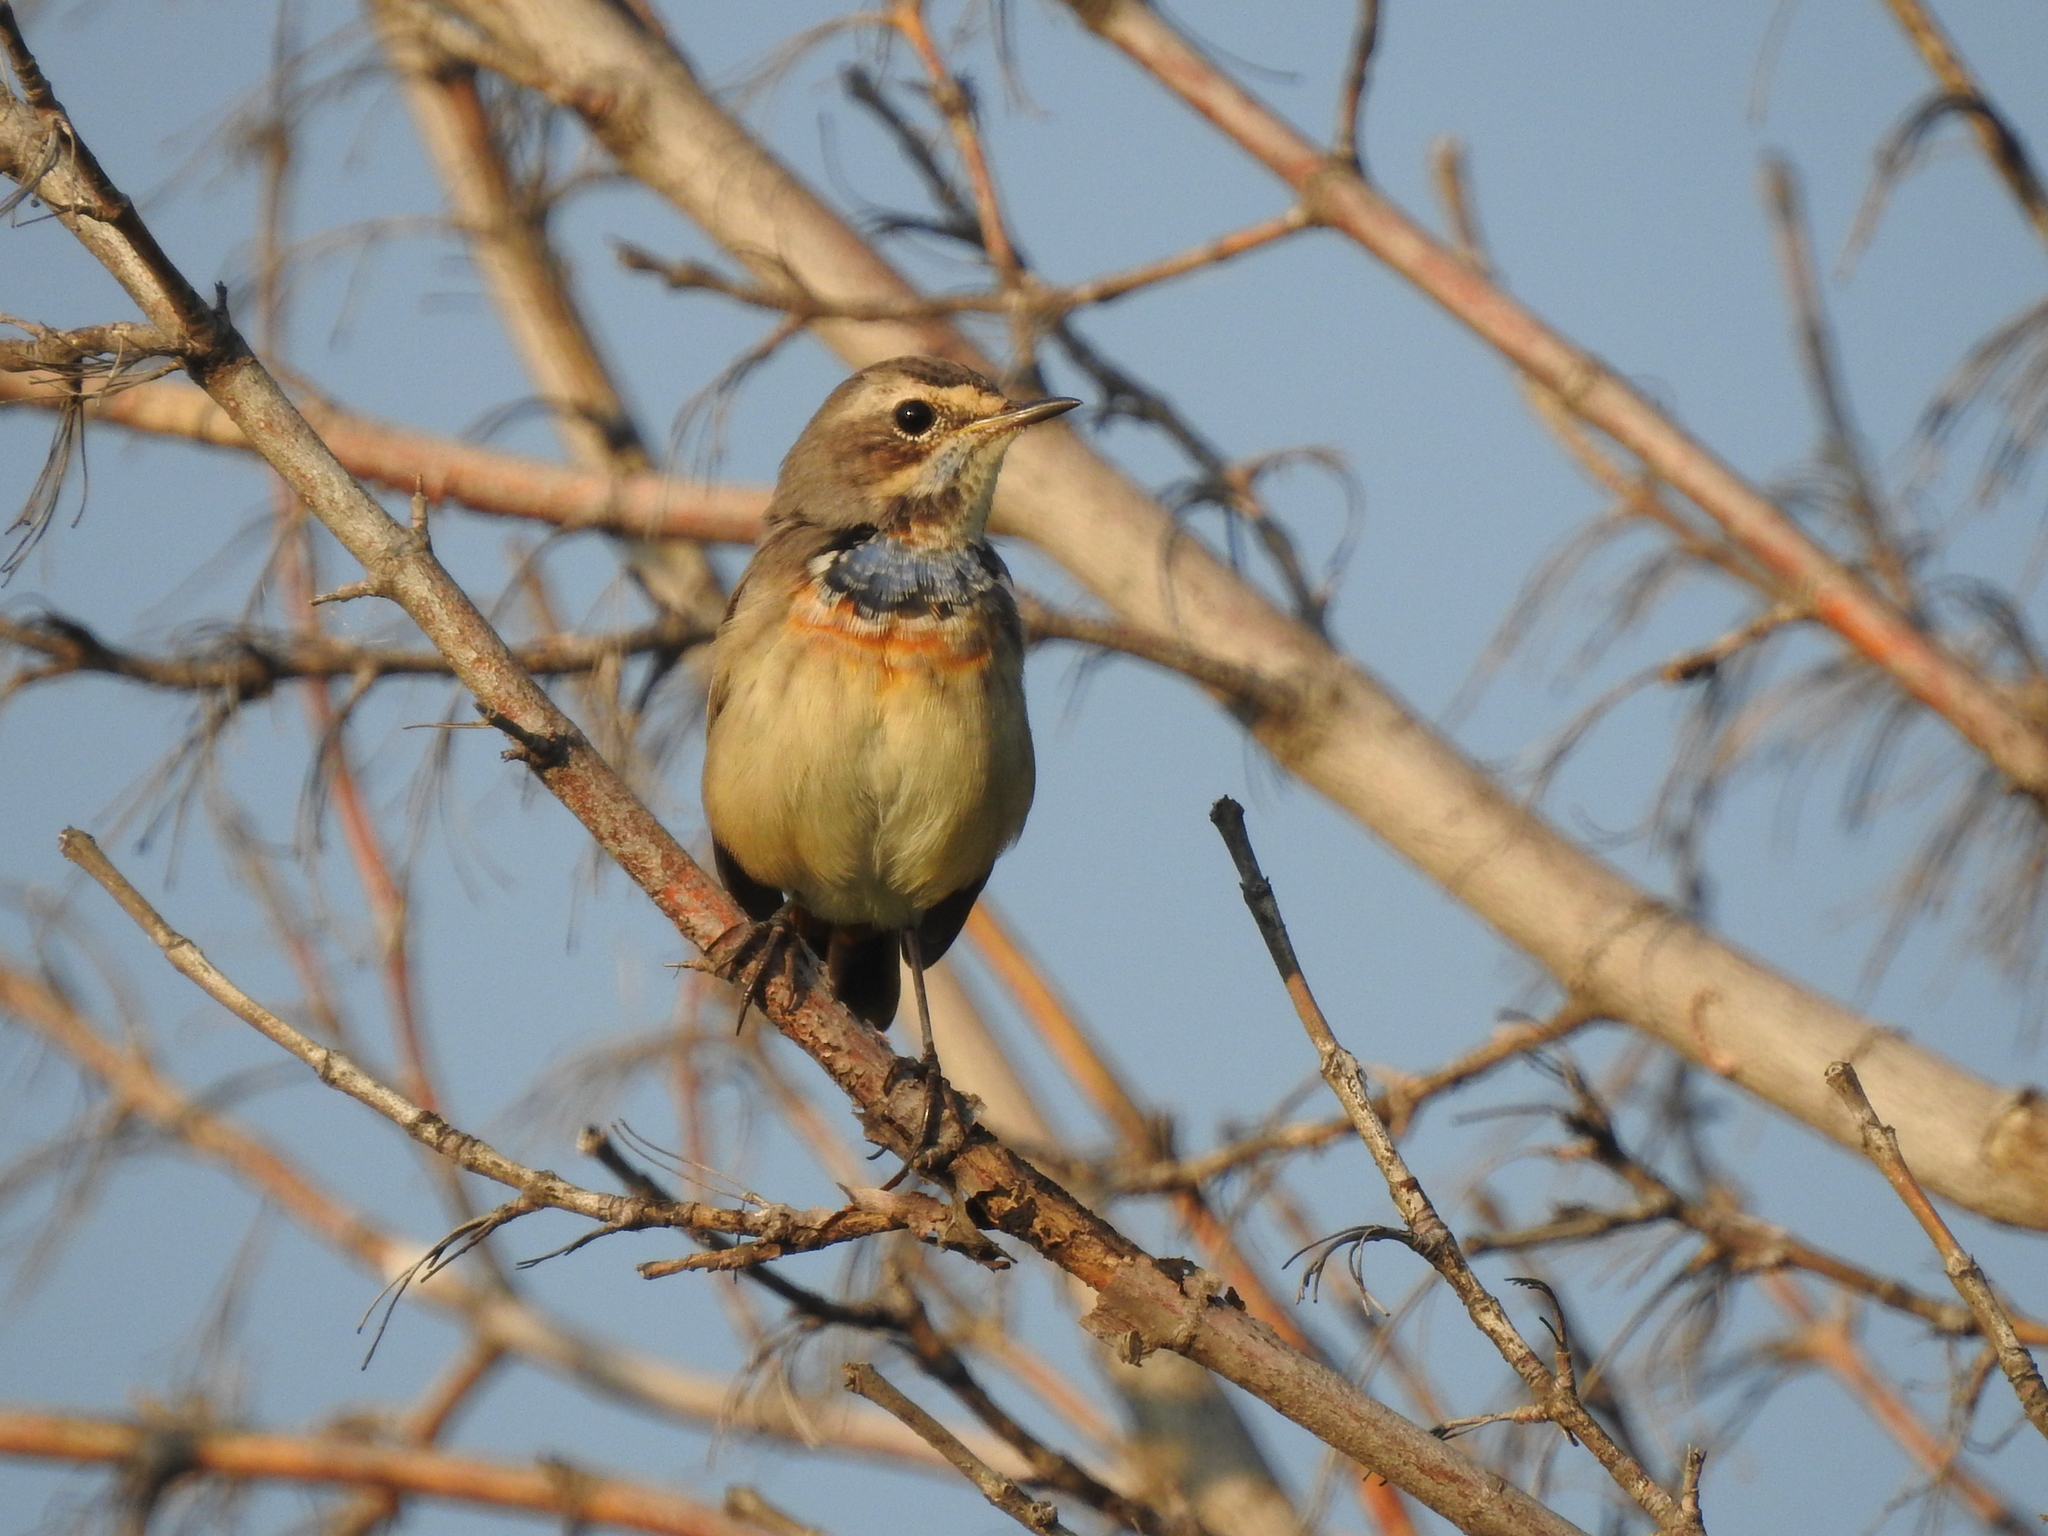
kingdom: Animalia
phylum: Chordata
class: Aves
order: Passeriformes
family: Muscicapidae
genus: Luscinia
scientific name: Luscinia svecica
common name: Bluethroat
